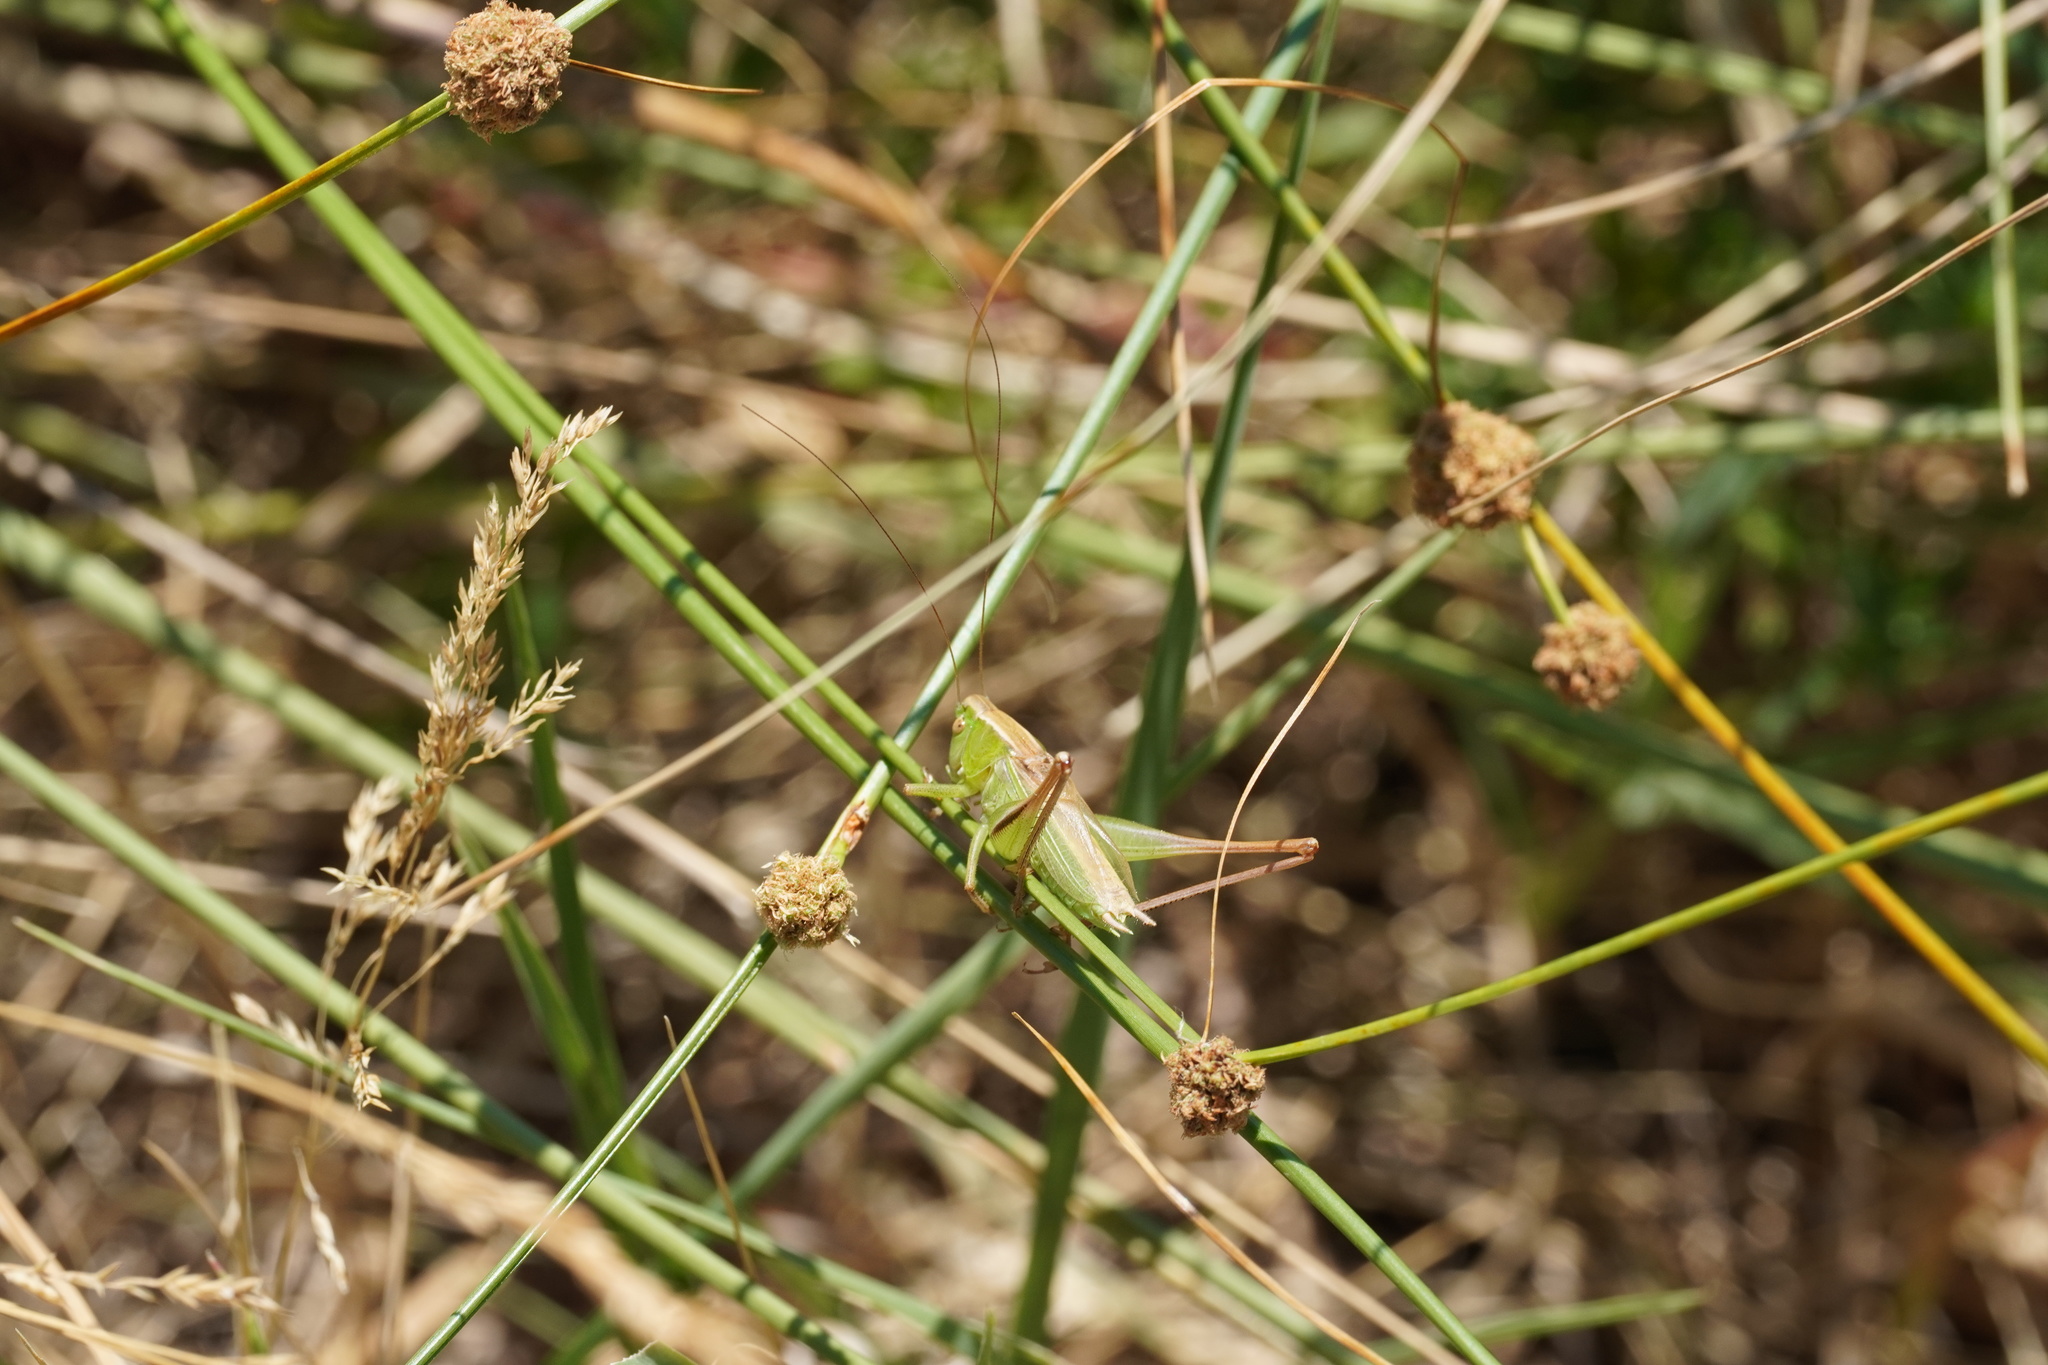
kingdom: Animalia
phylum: Arthropoda
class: Insecta
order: Orthoptera
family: Tettigoniidae
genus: Bicolorana
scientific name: Bicolorana bicolor
